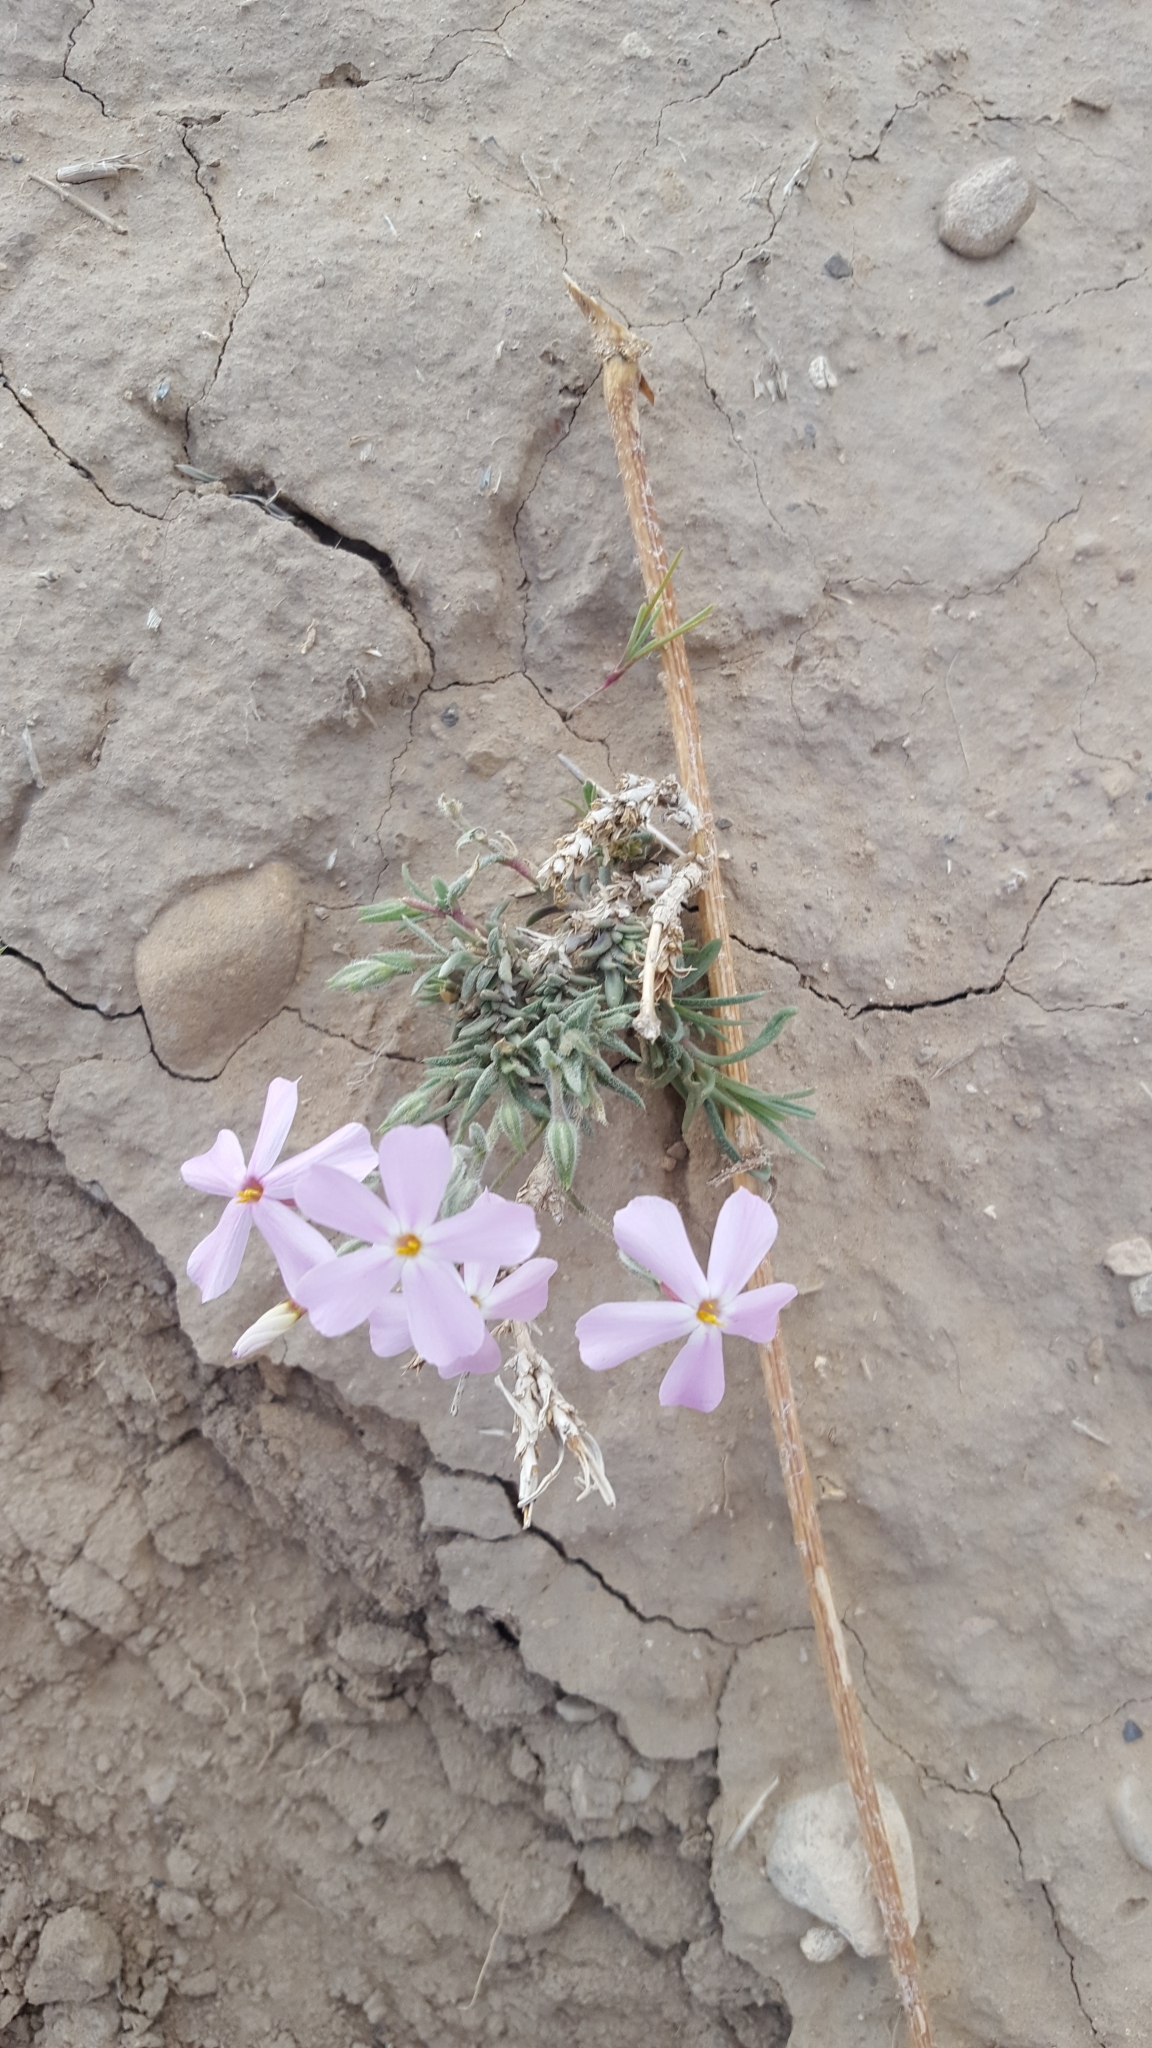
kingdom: Plantae
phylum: Tracheophyta
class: Magnoliopsida
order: Ericales
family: Polemoniaceae
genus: Phlox
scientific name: Phlox longifolia
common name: Longleaf phlox
